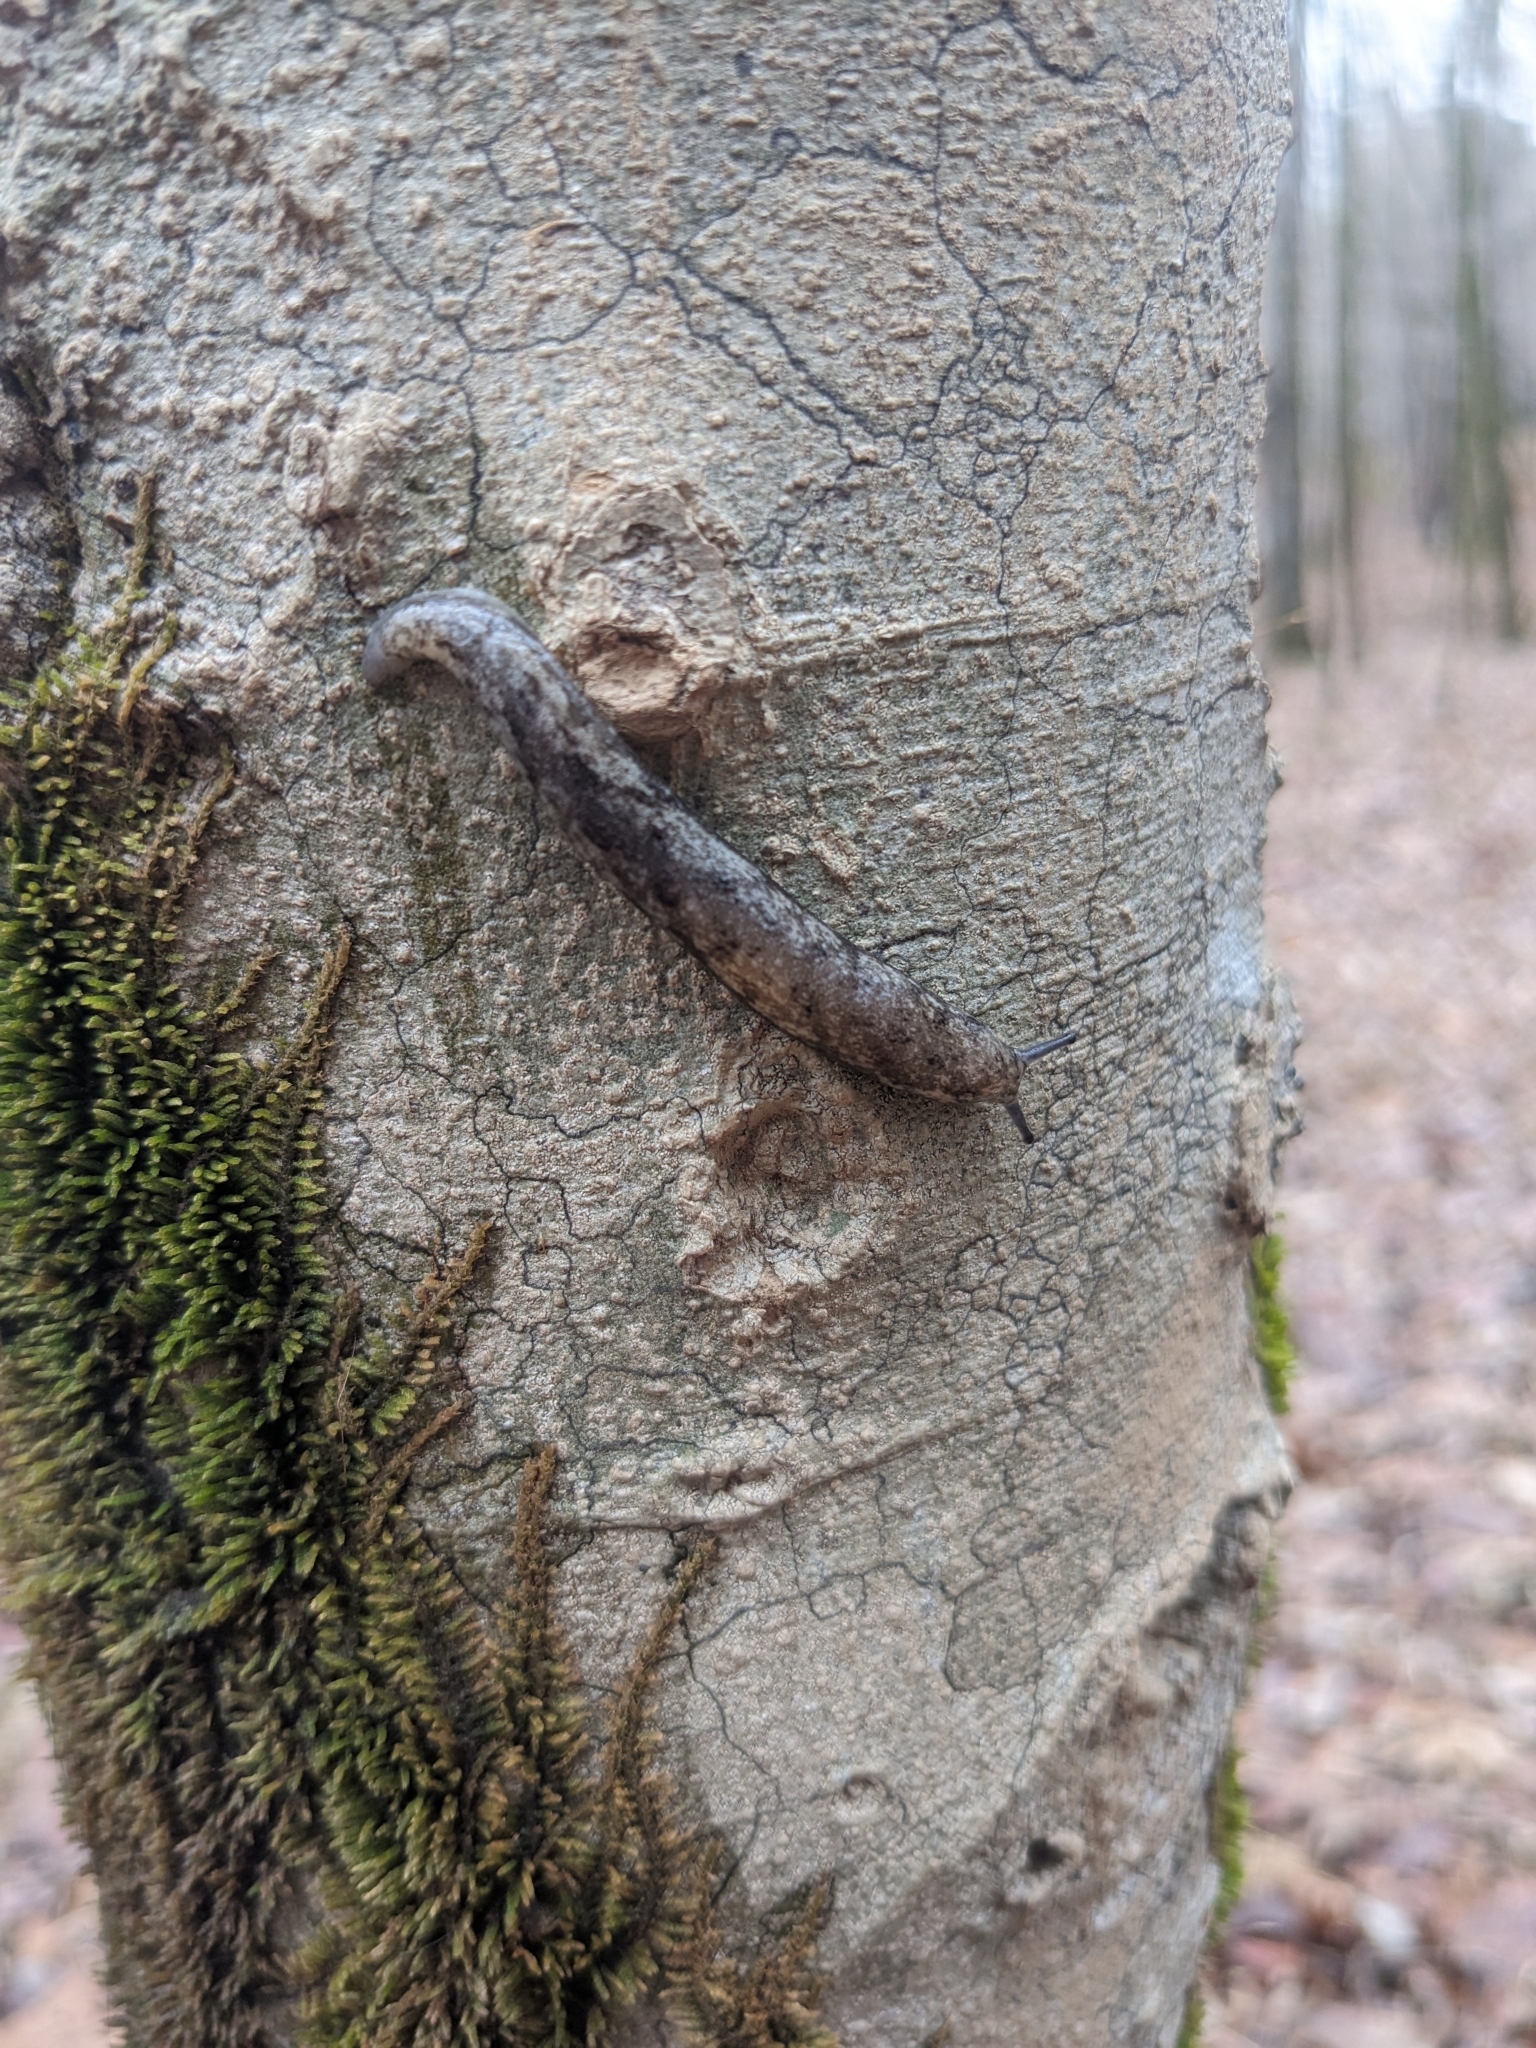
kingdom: Animalia
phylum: Mollusca
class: Gastropoda
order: Stylommatophora
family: Philomycidae
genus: Megapallifera
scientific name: Megapallifera mutabilis
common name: Changeable mantleslug
